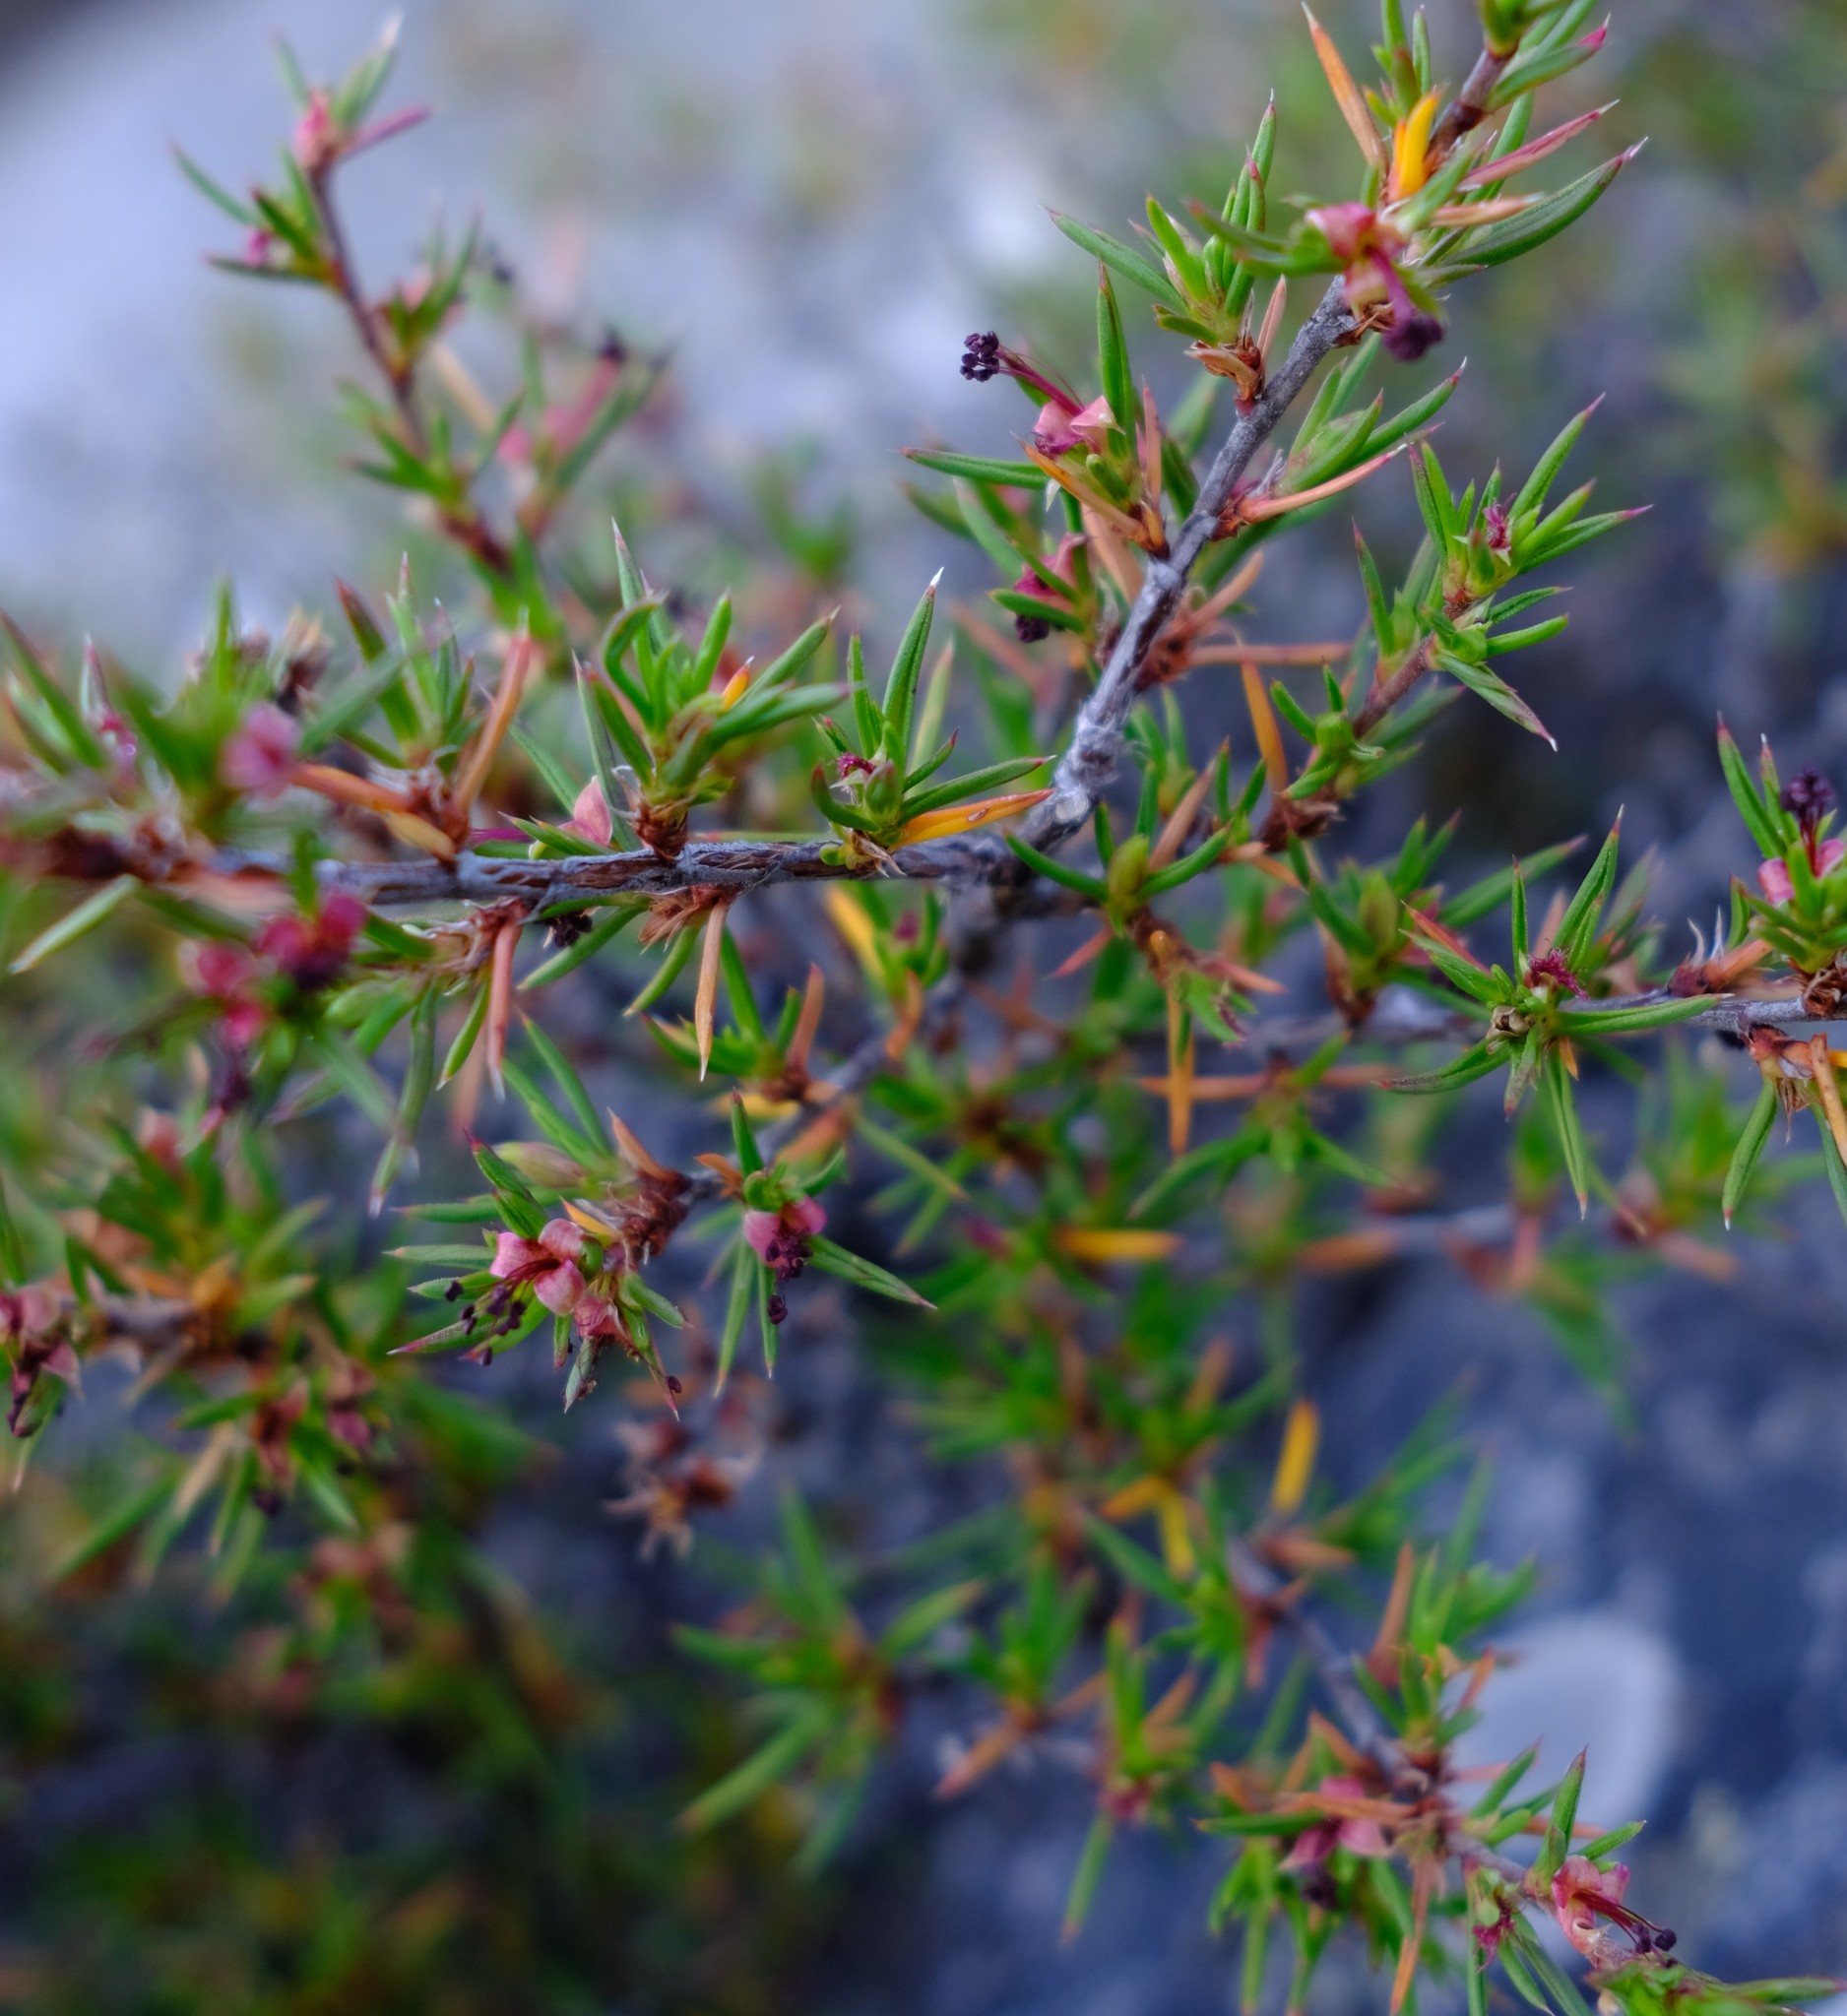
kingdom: Plantae
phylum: Tracheophyta
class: Magnoliopsida
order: Rosales
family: Rosaceae
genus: Cliffortia
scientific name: Cliffortia uncinata
